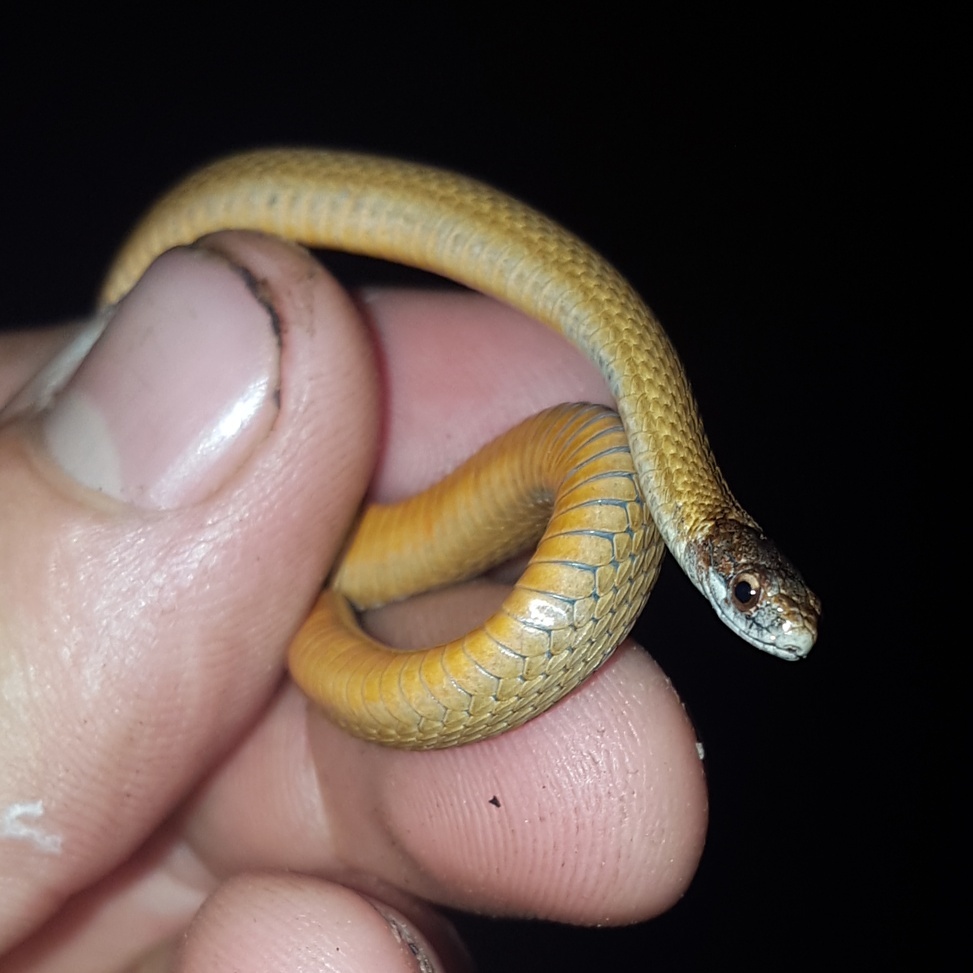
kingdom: Animalia
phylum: Chordata
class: Squamata
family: Colubridae
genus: Storeria
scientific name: Storeria occipitomaculata
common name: Redbelly snake
